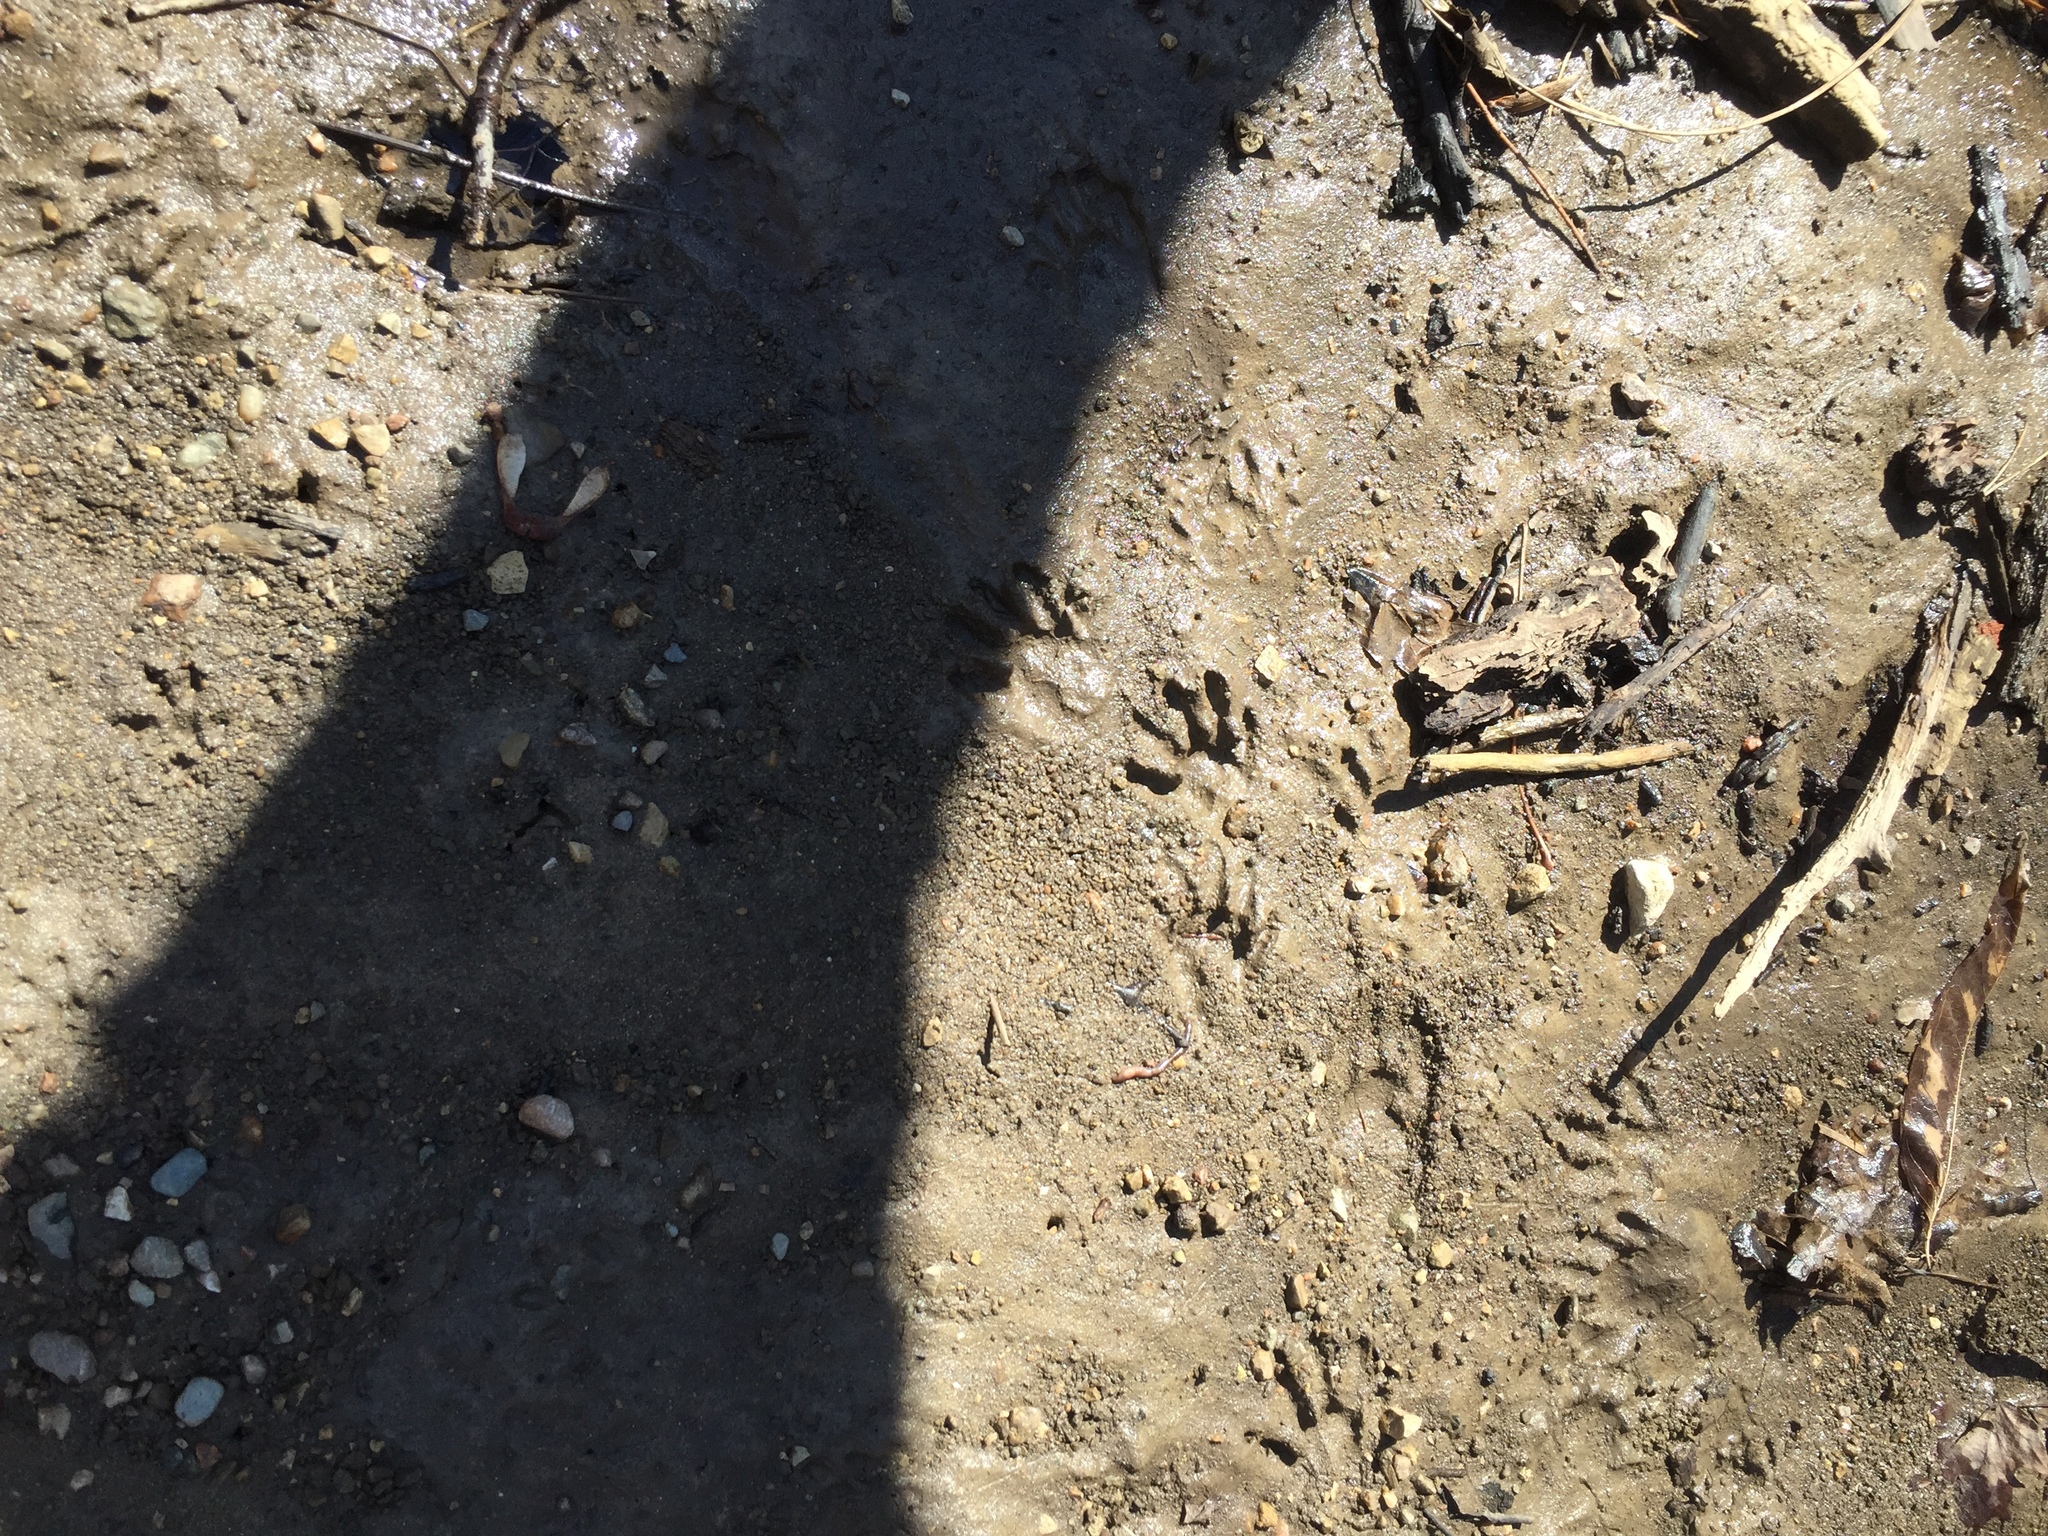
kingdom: Animalia
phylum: Chordata
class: Mammalia
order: Carnivora
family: Procyonidae
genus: Procyon
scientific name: Procyon lotor
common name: Raccoon
